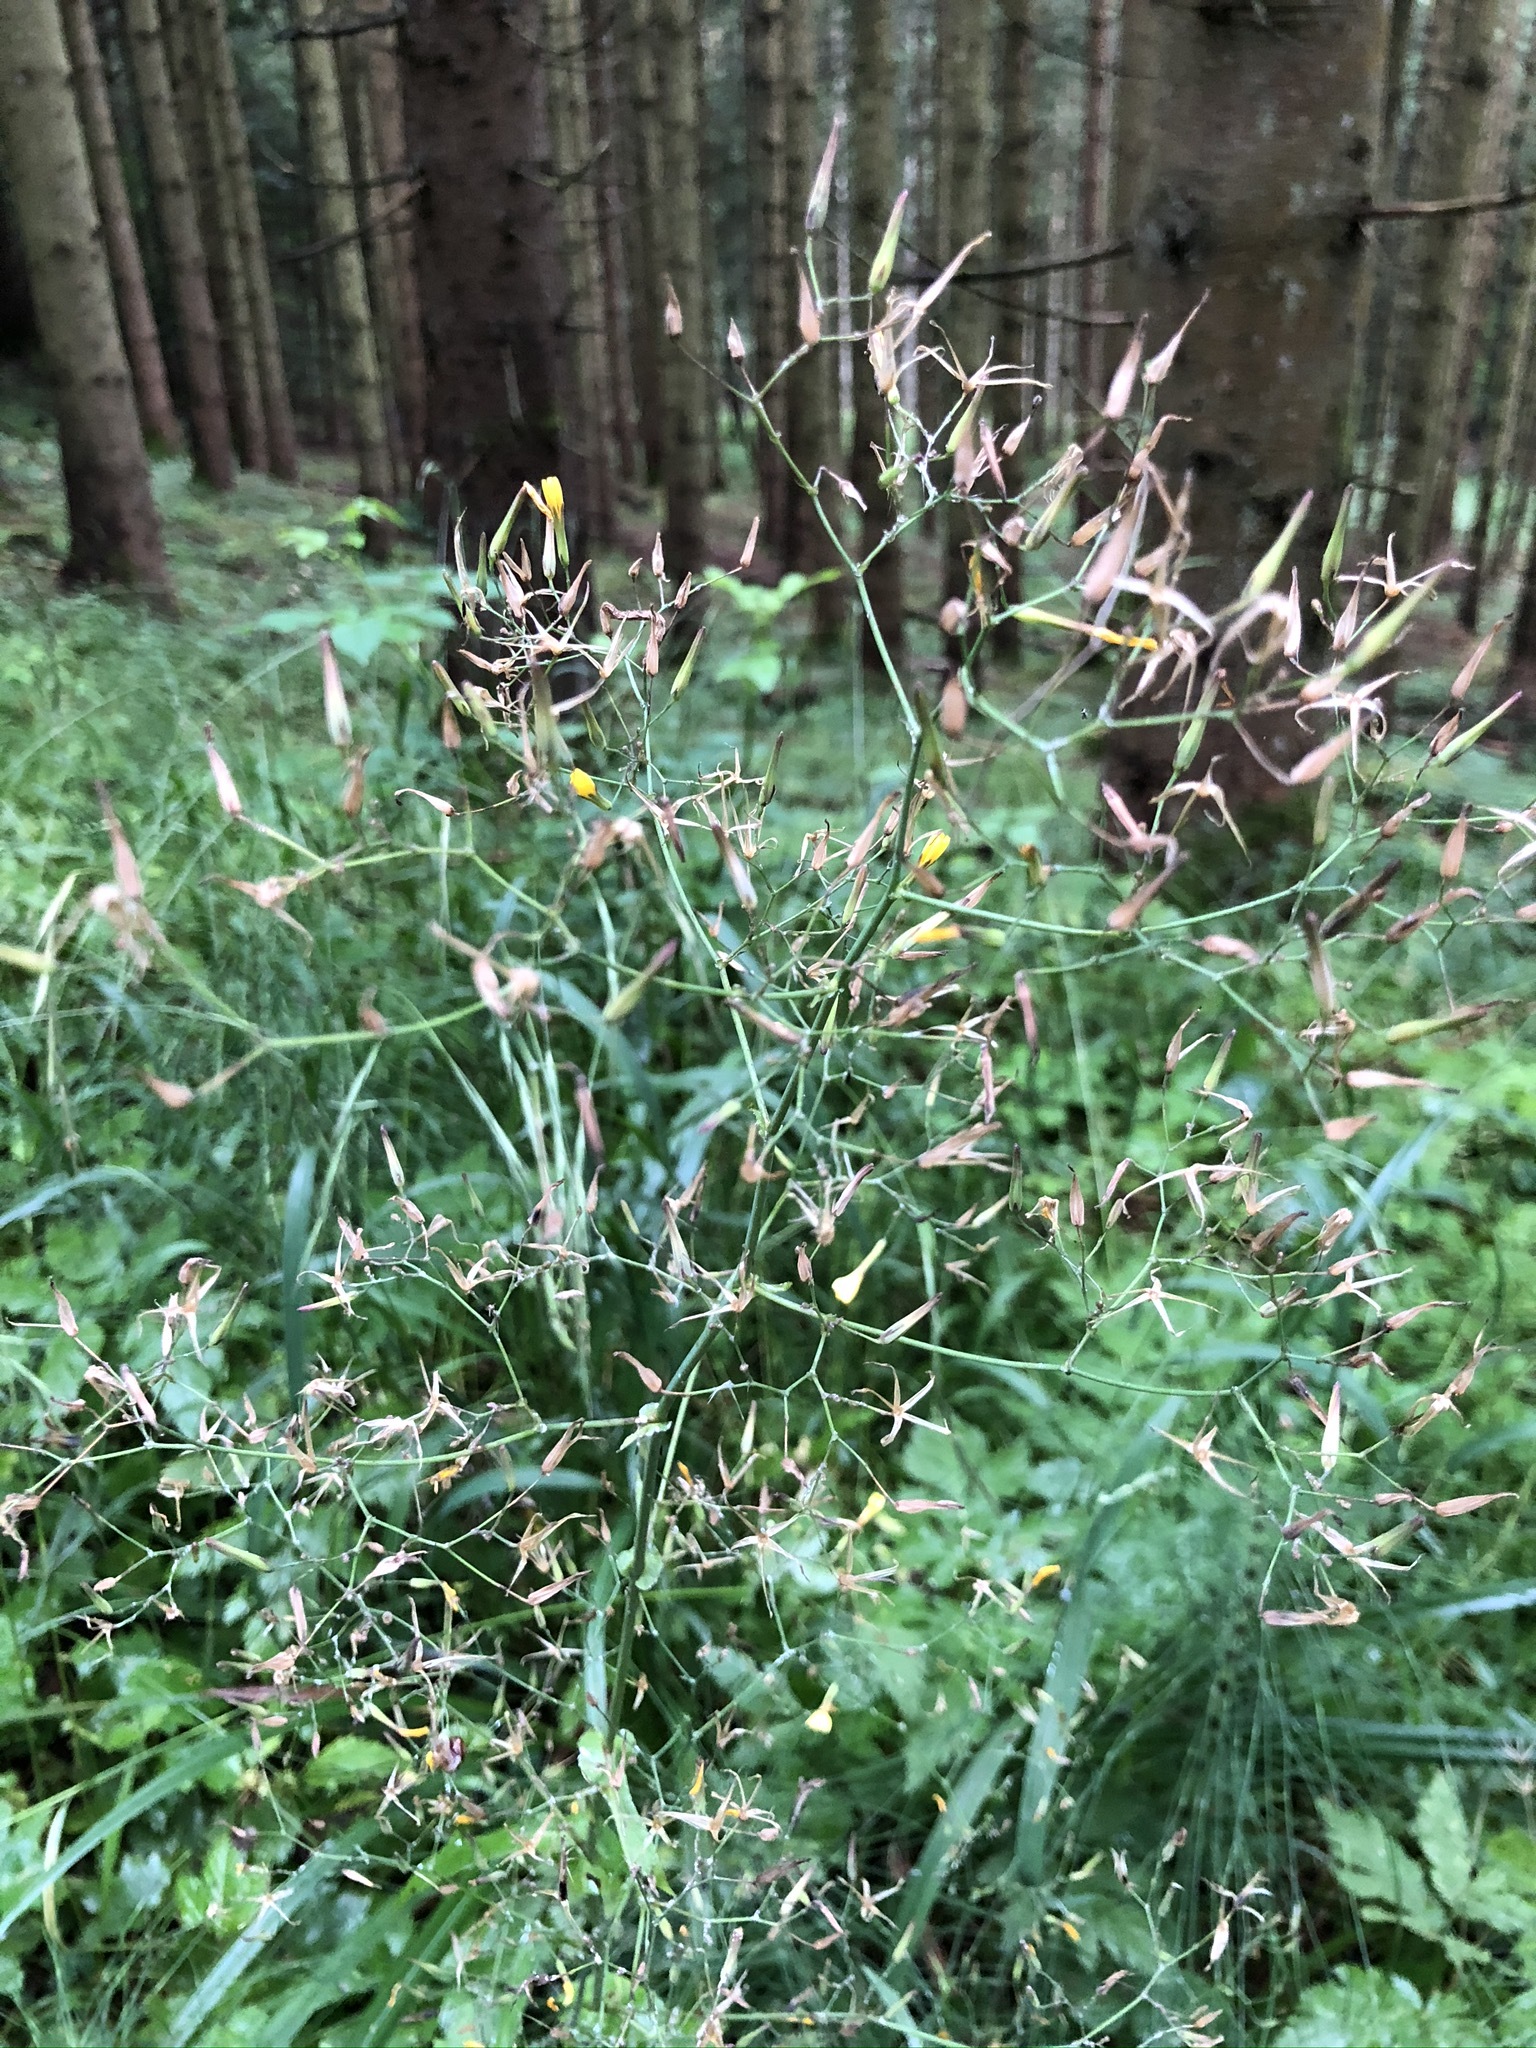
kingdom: Plantae
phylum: Tracheophyta
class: Magnoliopsida
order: Asterales
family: Asteraceae
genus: Mycelis
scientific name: Mycelis muralis
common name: Wall lettuce
